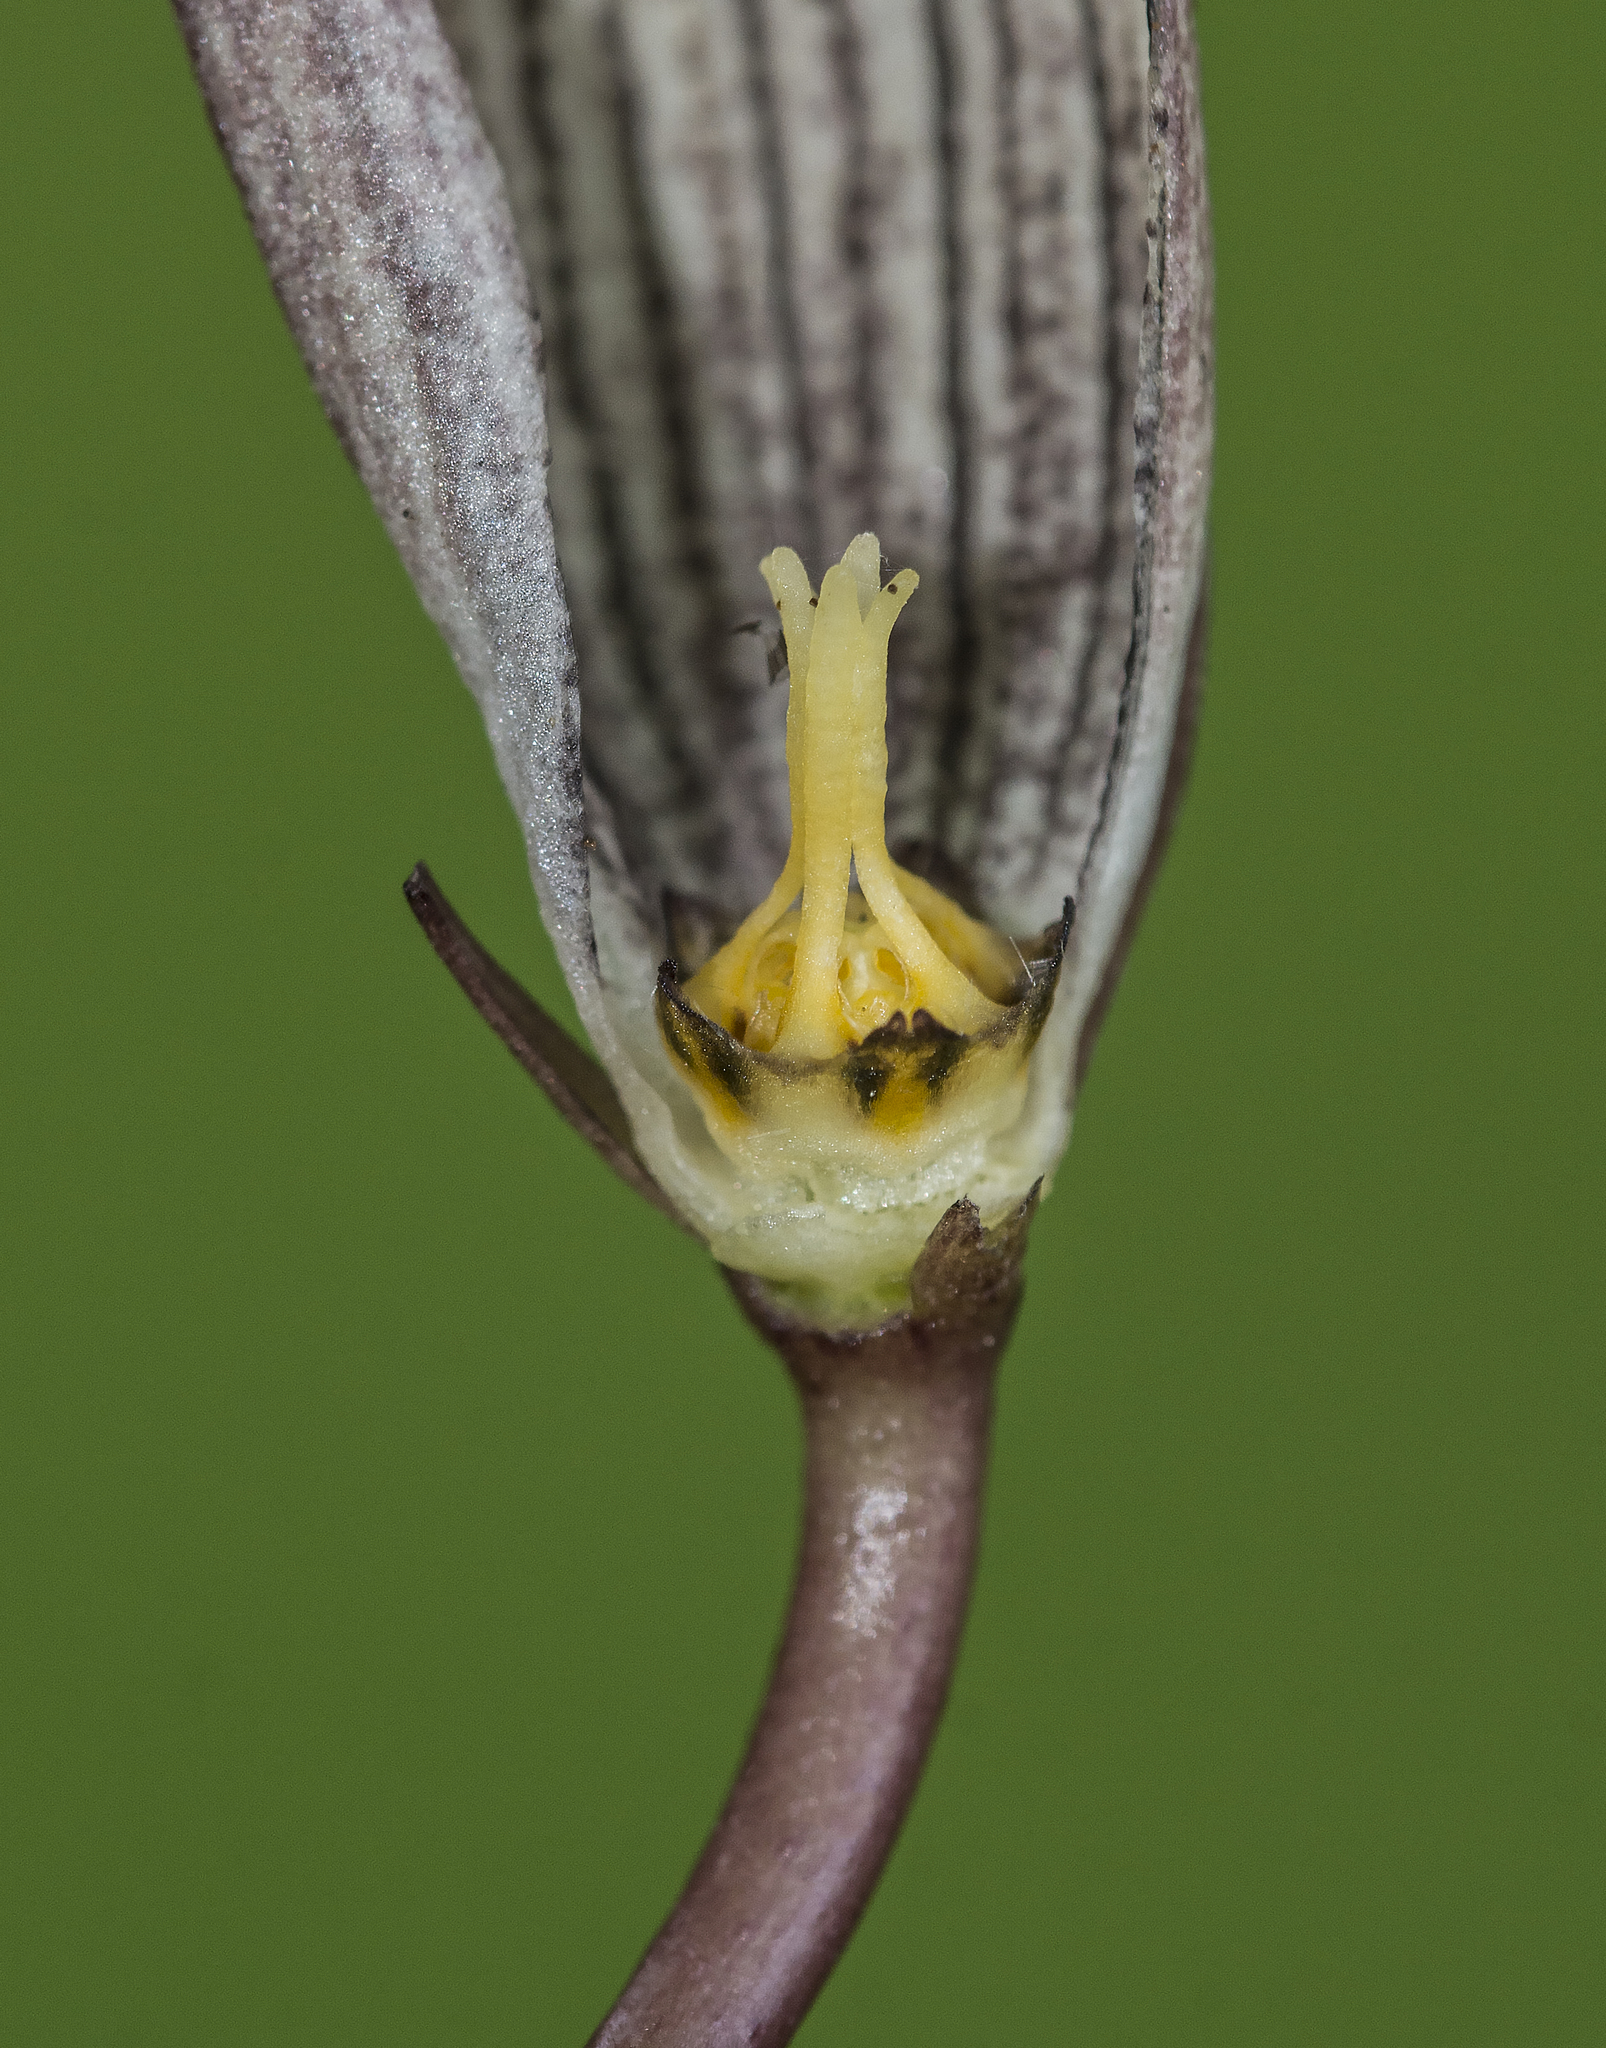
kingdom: Plantae
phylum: Tracheophyta
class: Magnoliopsida
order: Gentianales
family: Apocynaceae
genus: Ceropegia
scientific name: Ceropegia oculata
